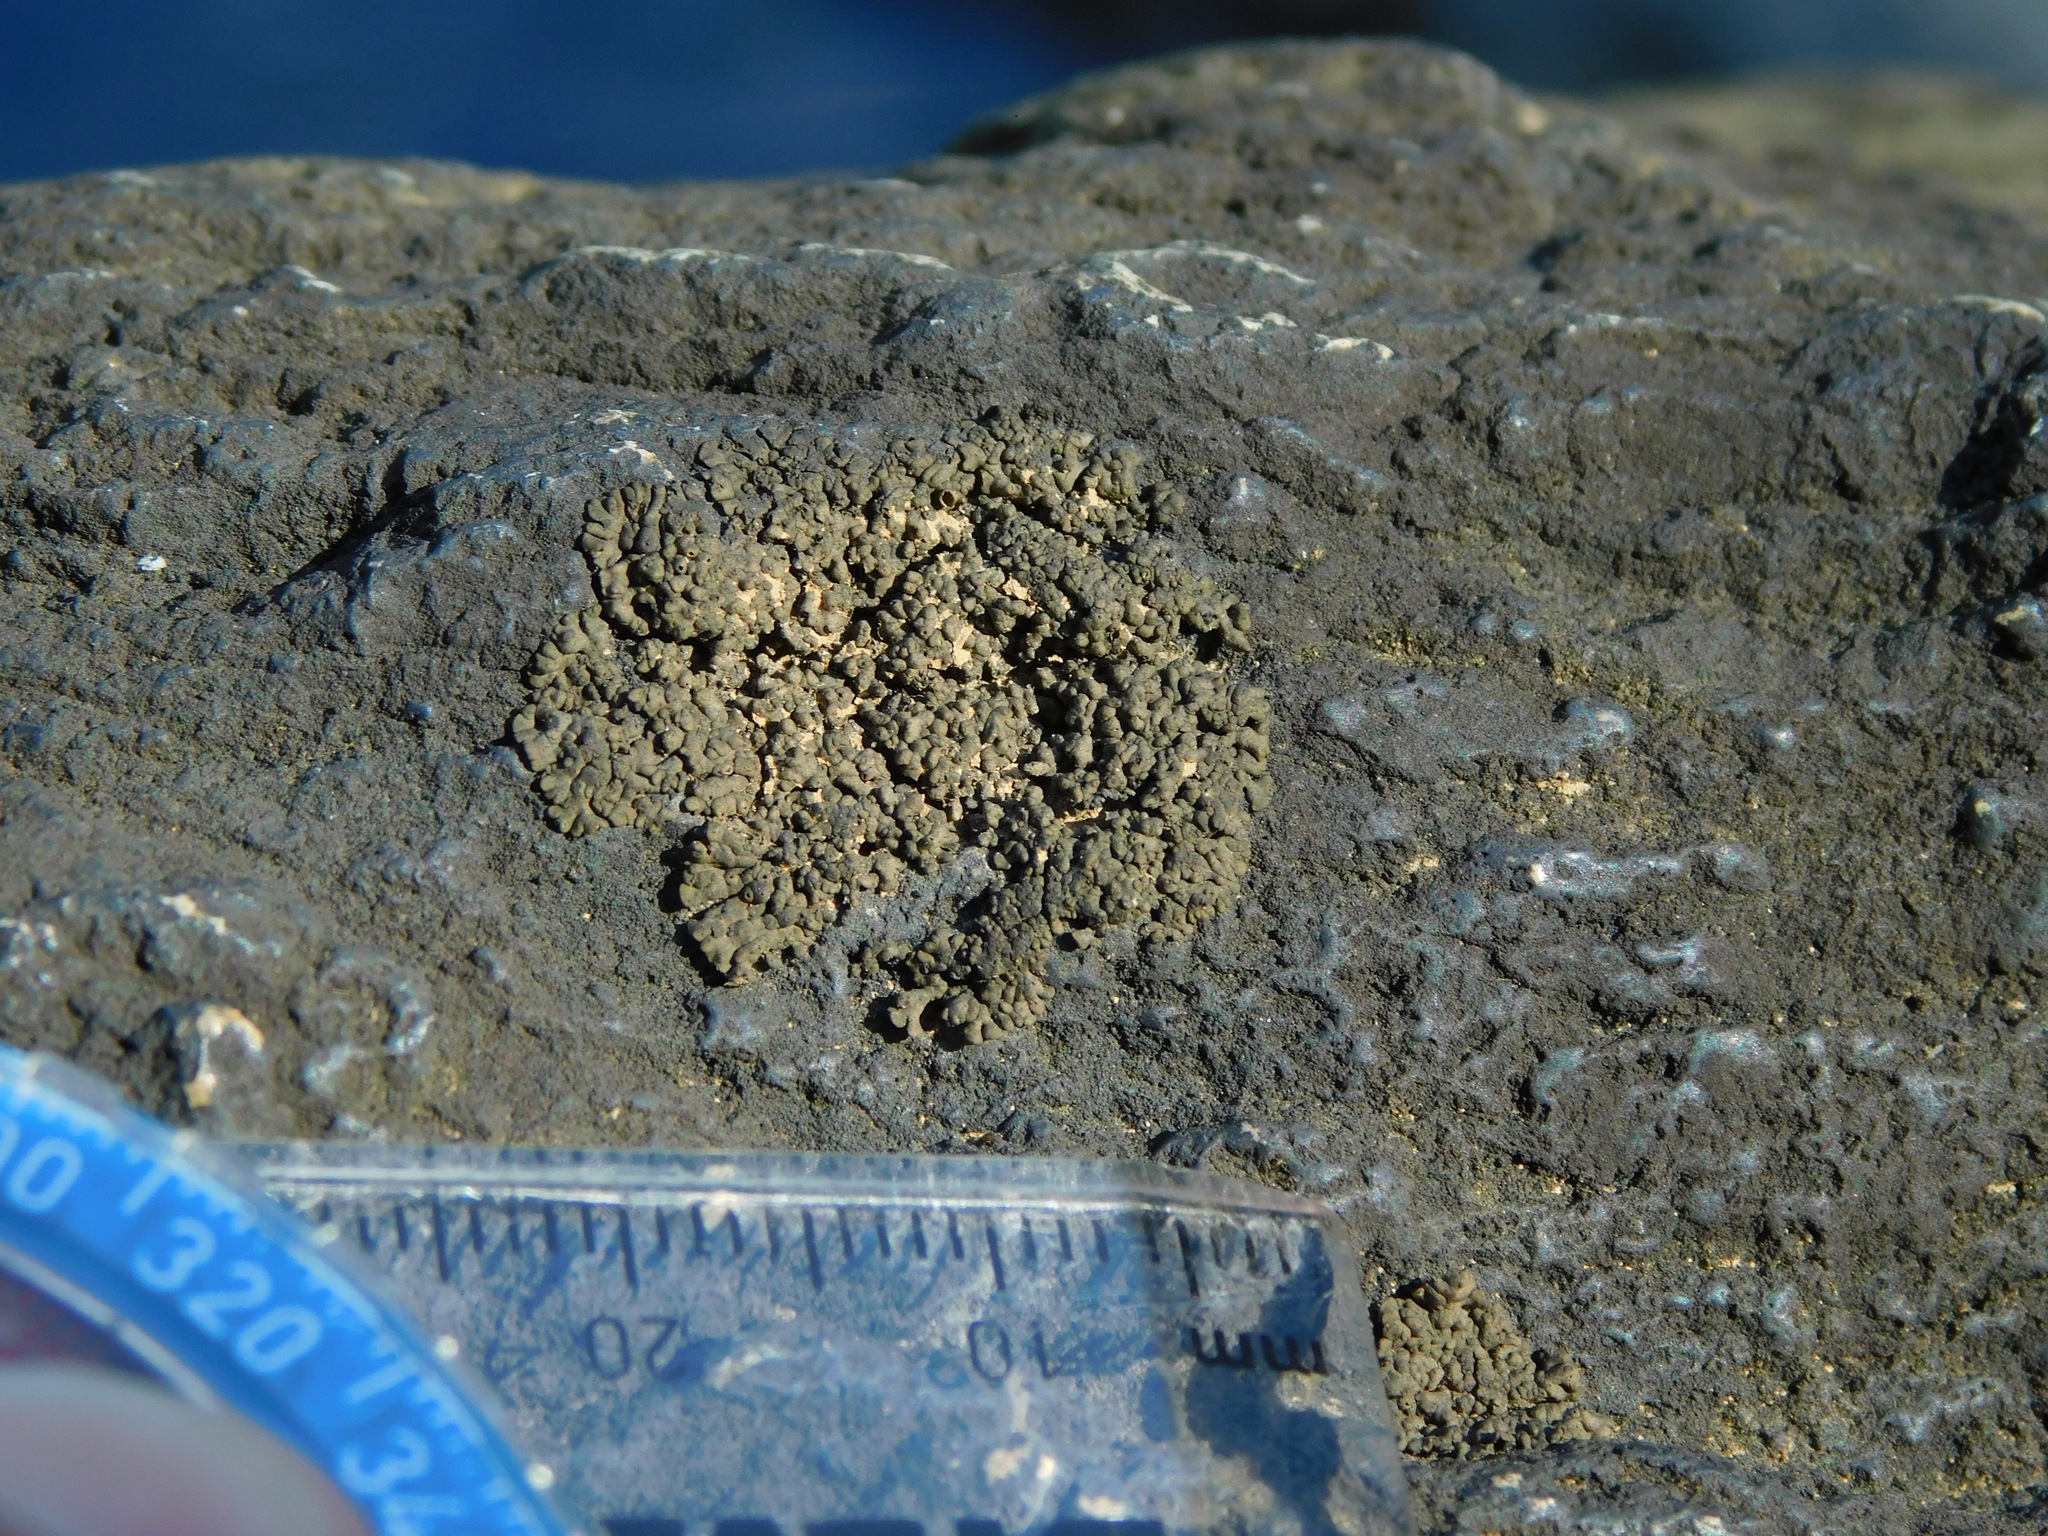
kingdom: Fungi
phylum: Ascomycota
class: Eurotiomycetes
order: Verrucariales
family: Verrucariaceae
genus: Verrucaria
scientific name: Verrucaria lobata
